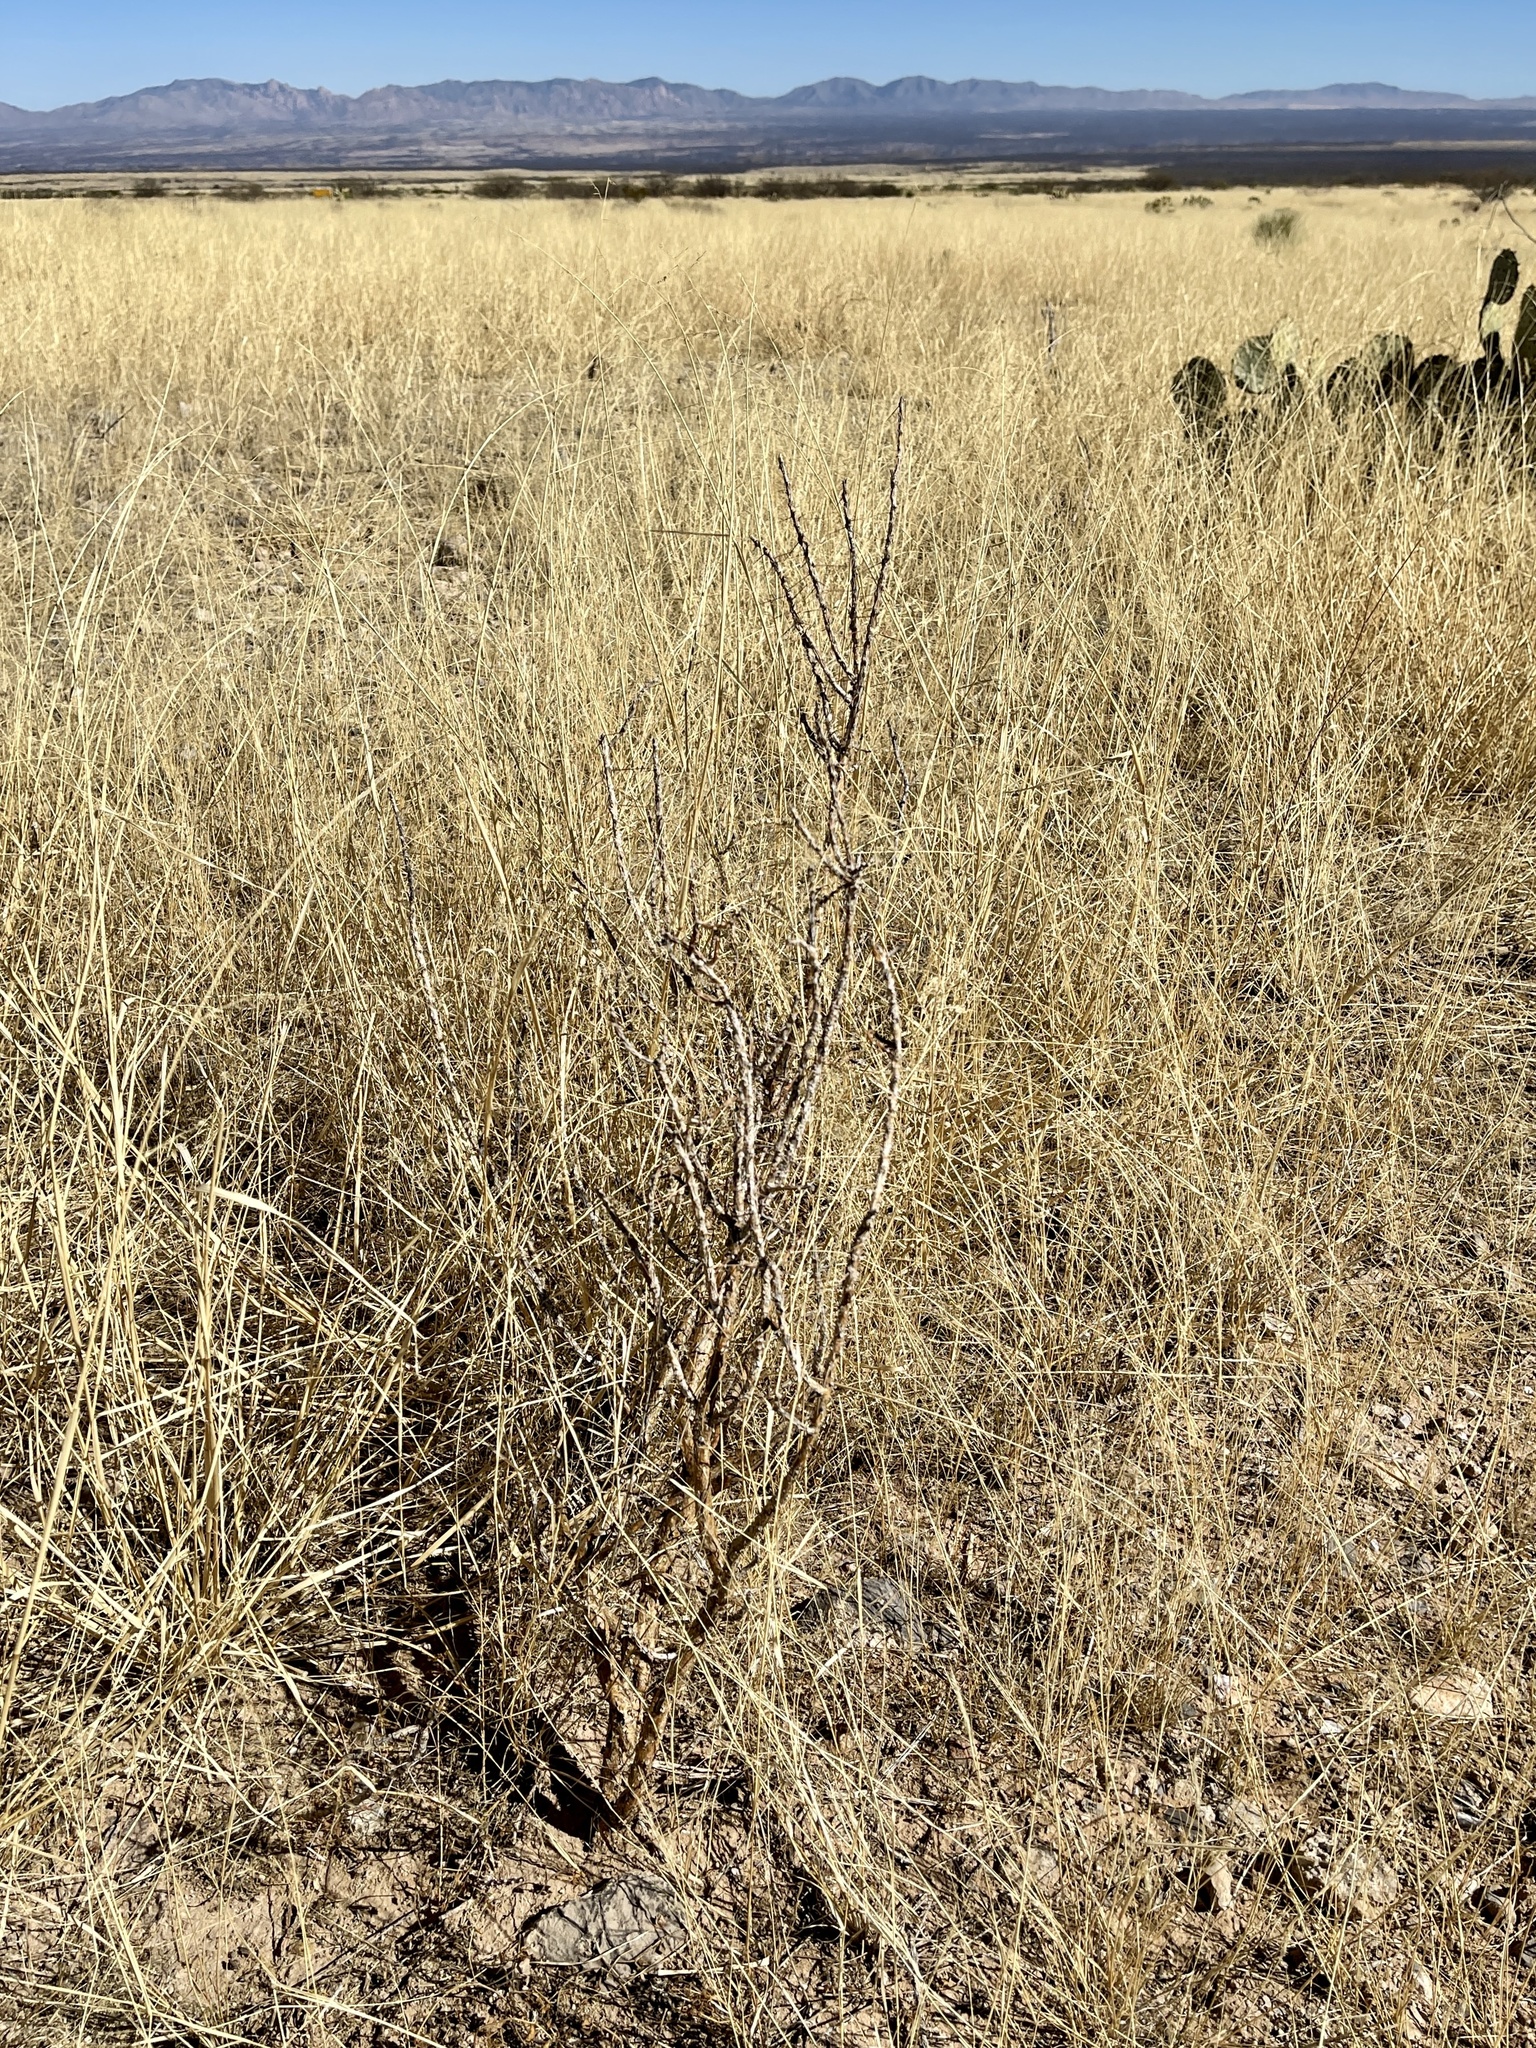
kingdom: Plantae
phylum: Tracheophyta
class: Magnoliopsida
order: Caryophyllales
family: Cactaceae
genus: Cylindropuntia
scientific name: Cylindropuntia leptocaulis
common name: Christmas cactus
